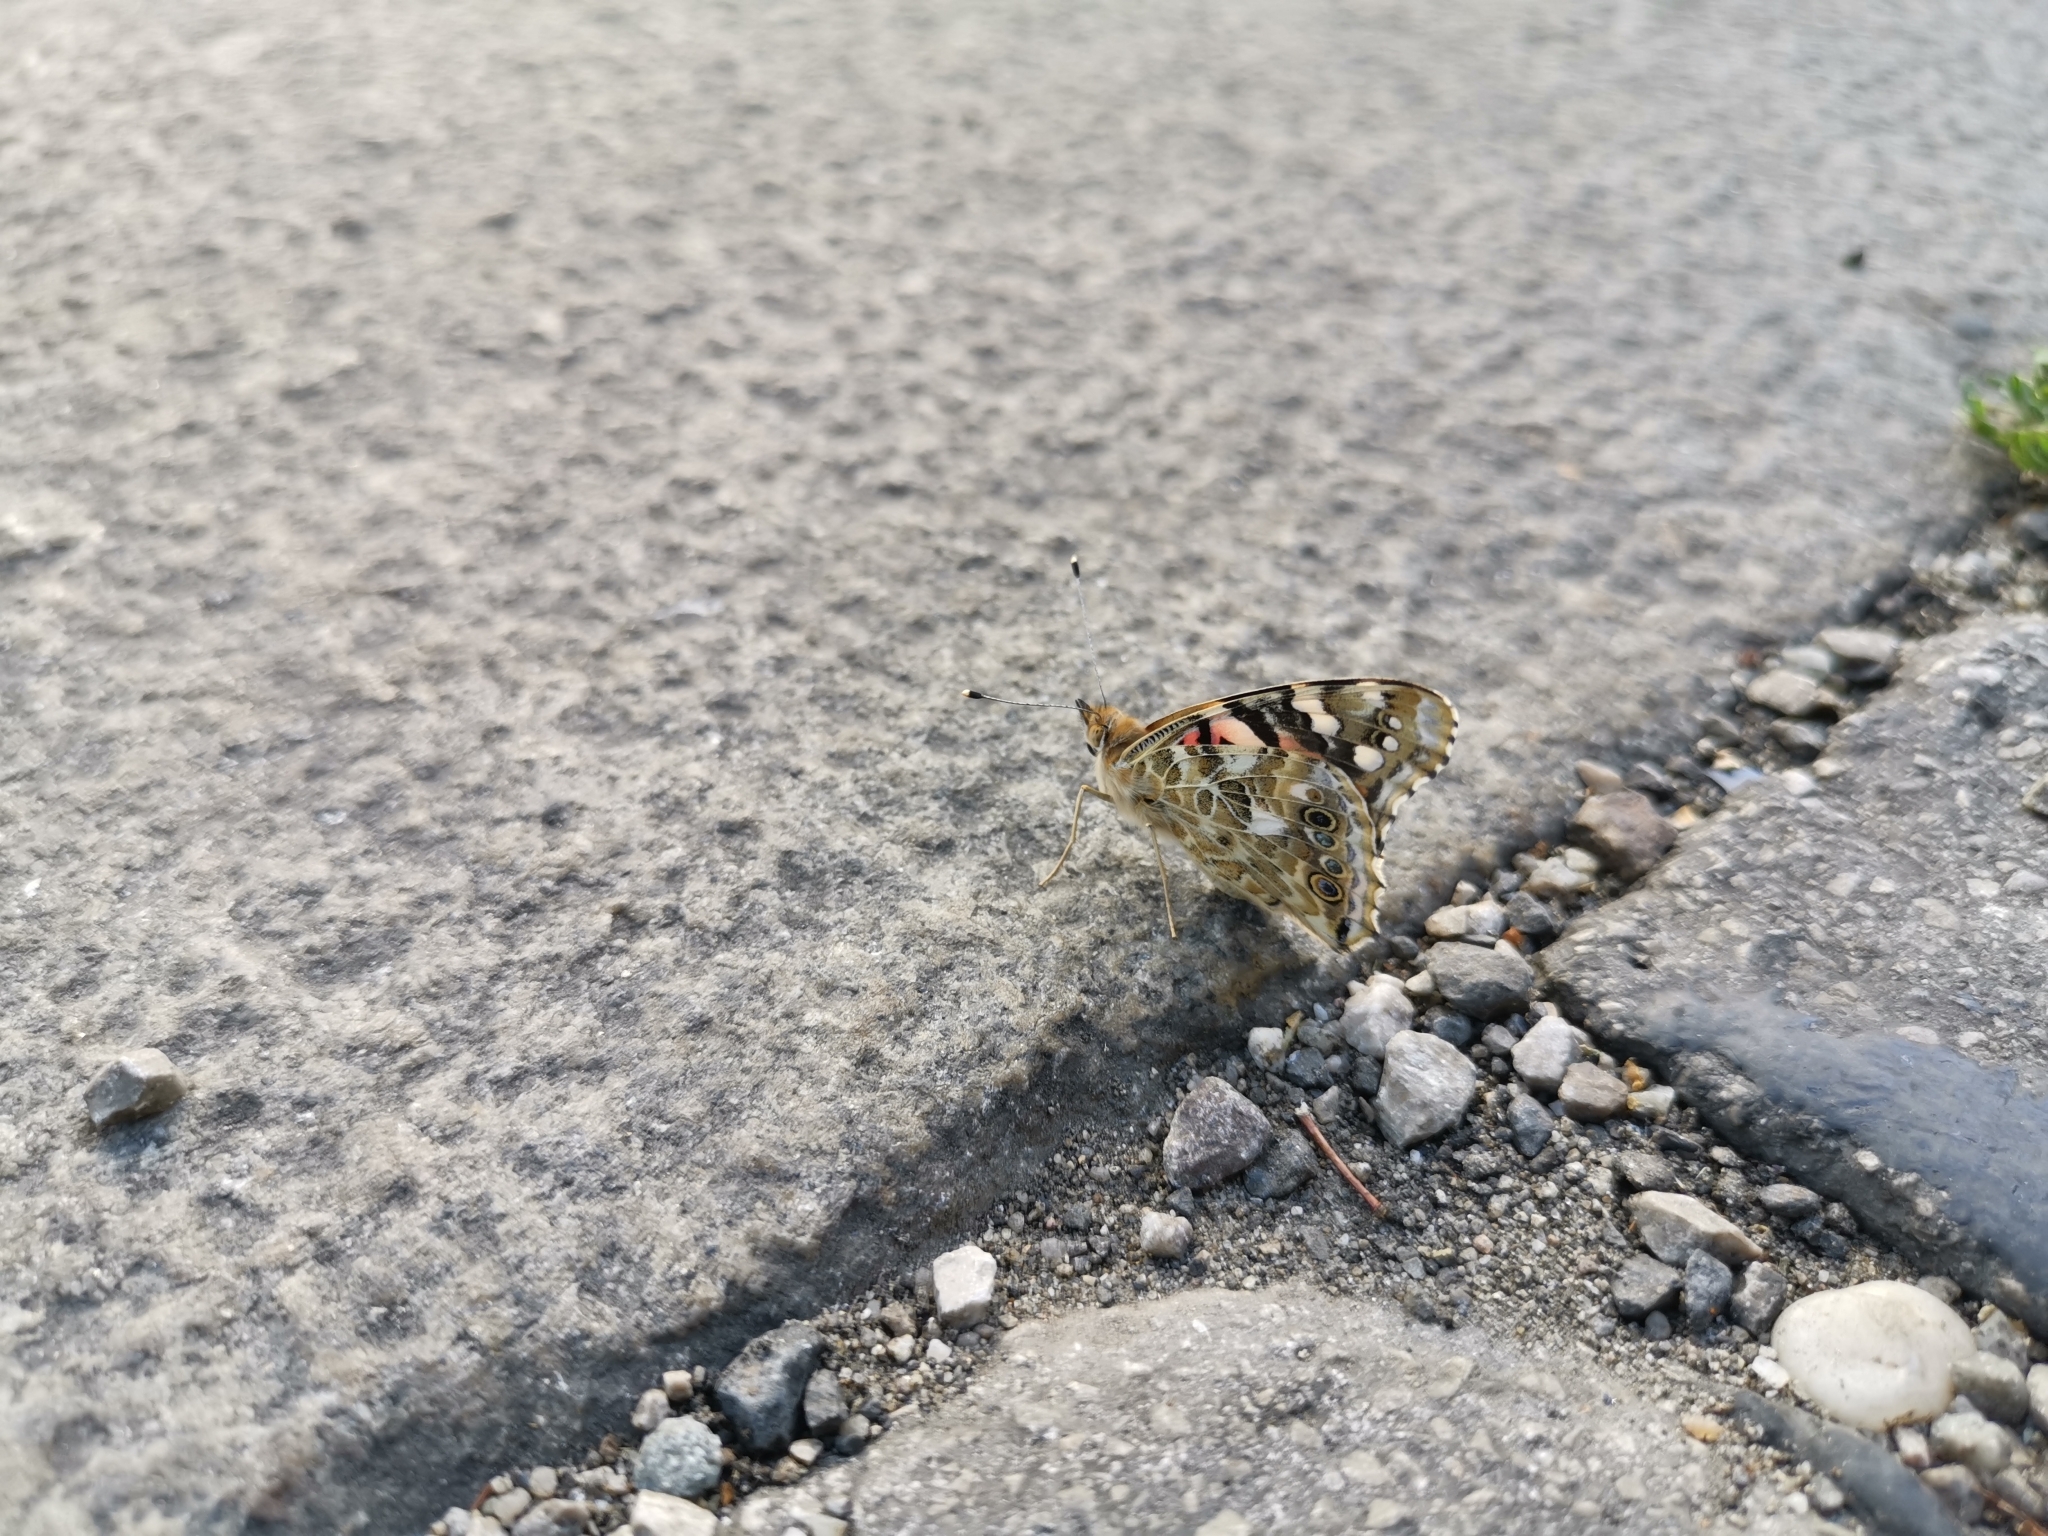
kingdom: Animalia
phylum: Arthropoda
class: Insecta
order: Lepidoptera
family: Nymphalidae
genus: Vanessa
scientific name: Vanessa cardui
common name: Painted lady
